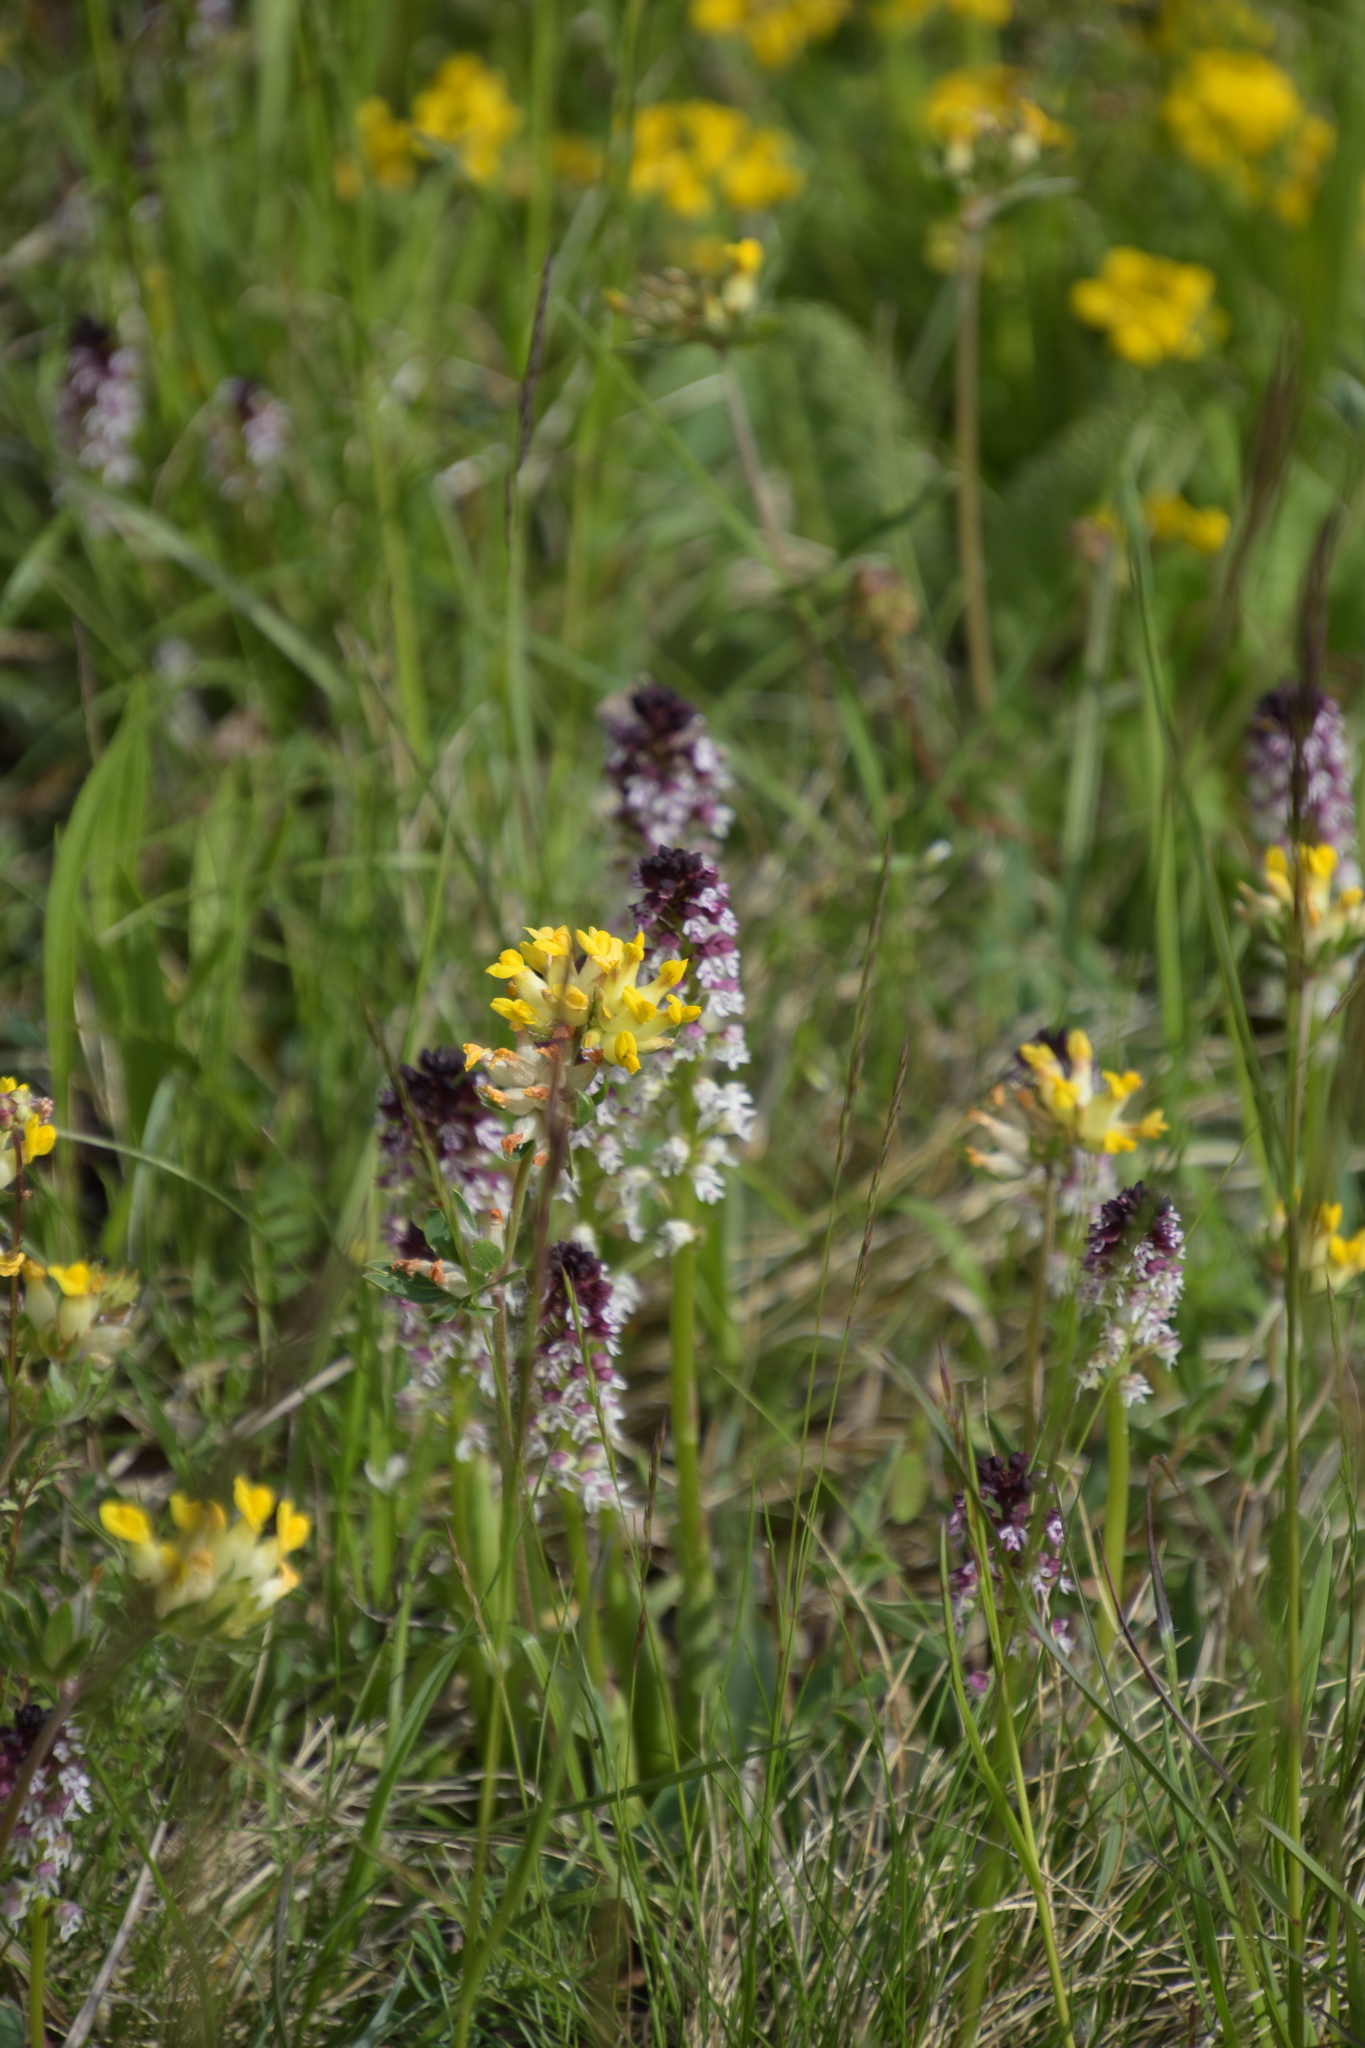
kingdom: Plantae
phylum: Tracheophyta
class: Liliopsida
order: Asparagales
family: Orchidaceae
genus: Neotinea
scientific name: Neotinea ustulata
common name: Burnt orchid
